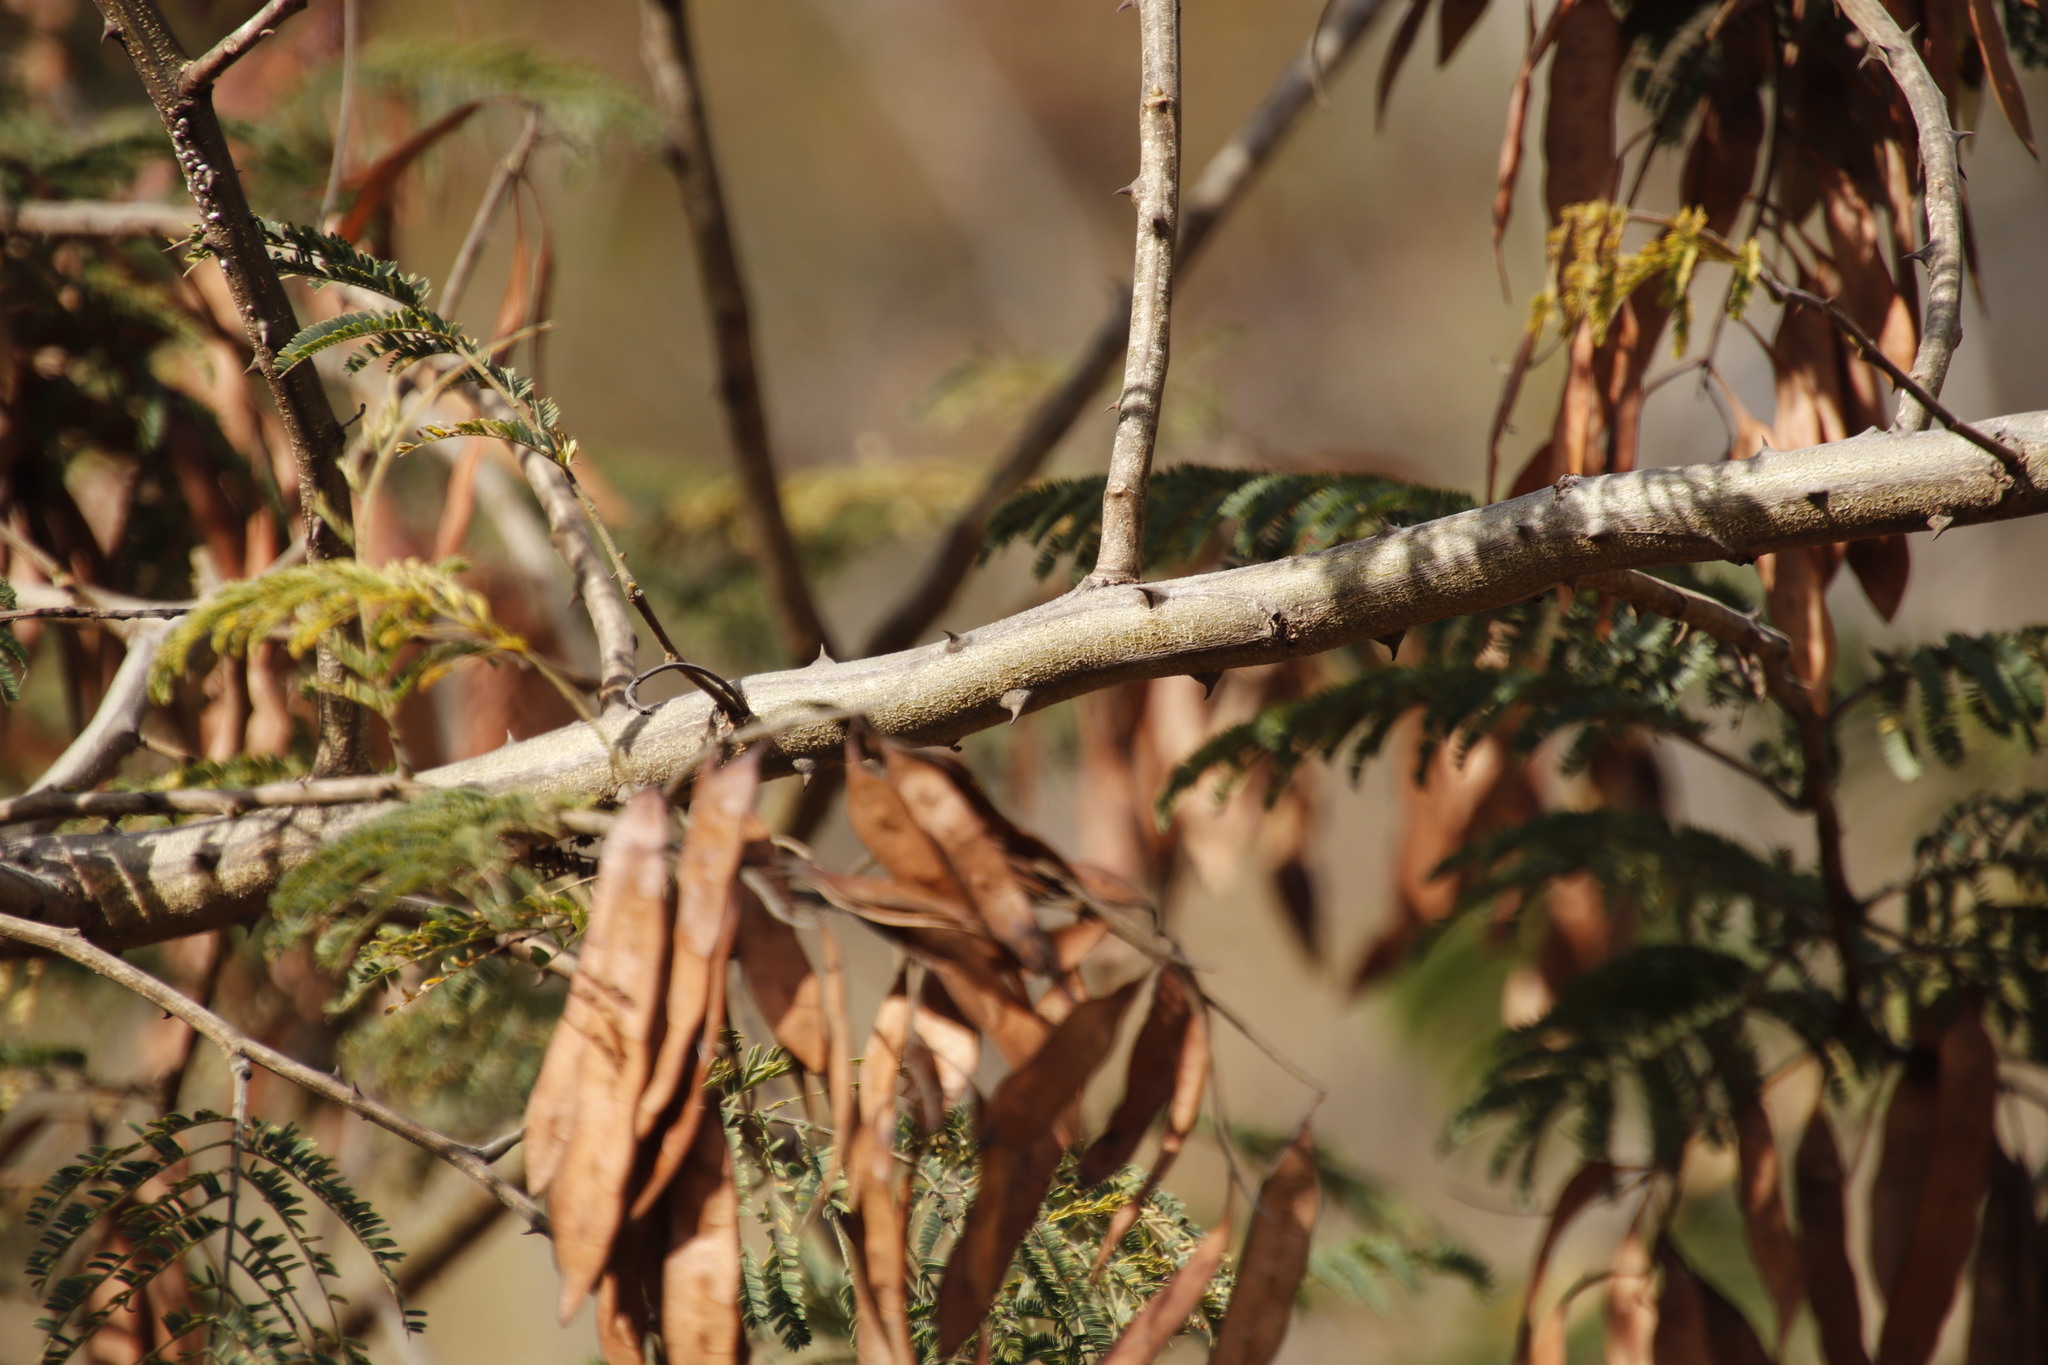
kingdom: Plantae
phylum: Tracheophyta
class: Magnoliopsida
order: Fabales
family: Fabaceae
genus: Senegalia
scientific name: Senegalia schweinfurthii
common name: River climbing acacia
